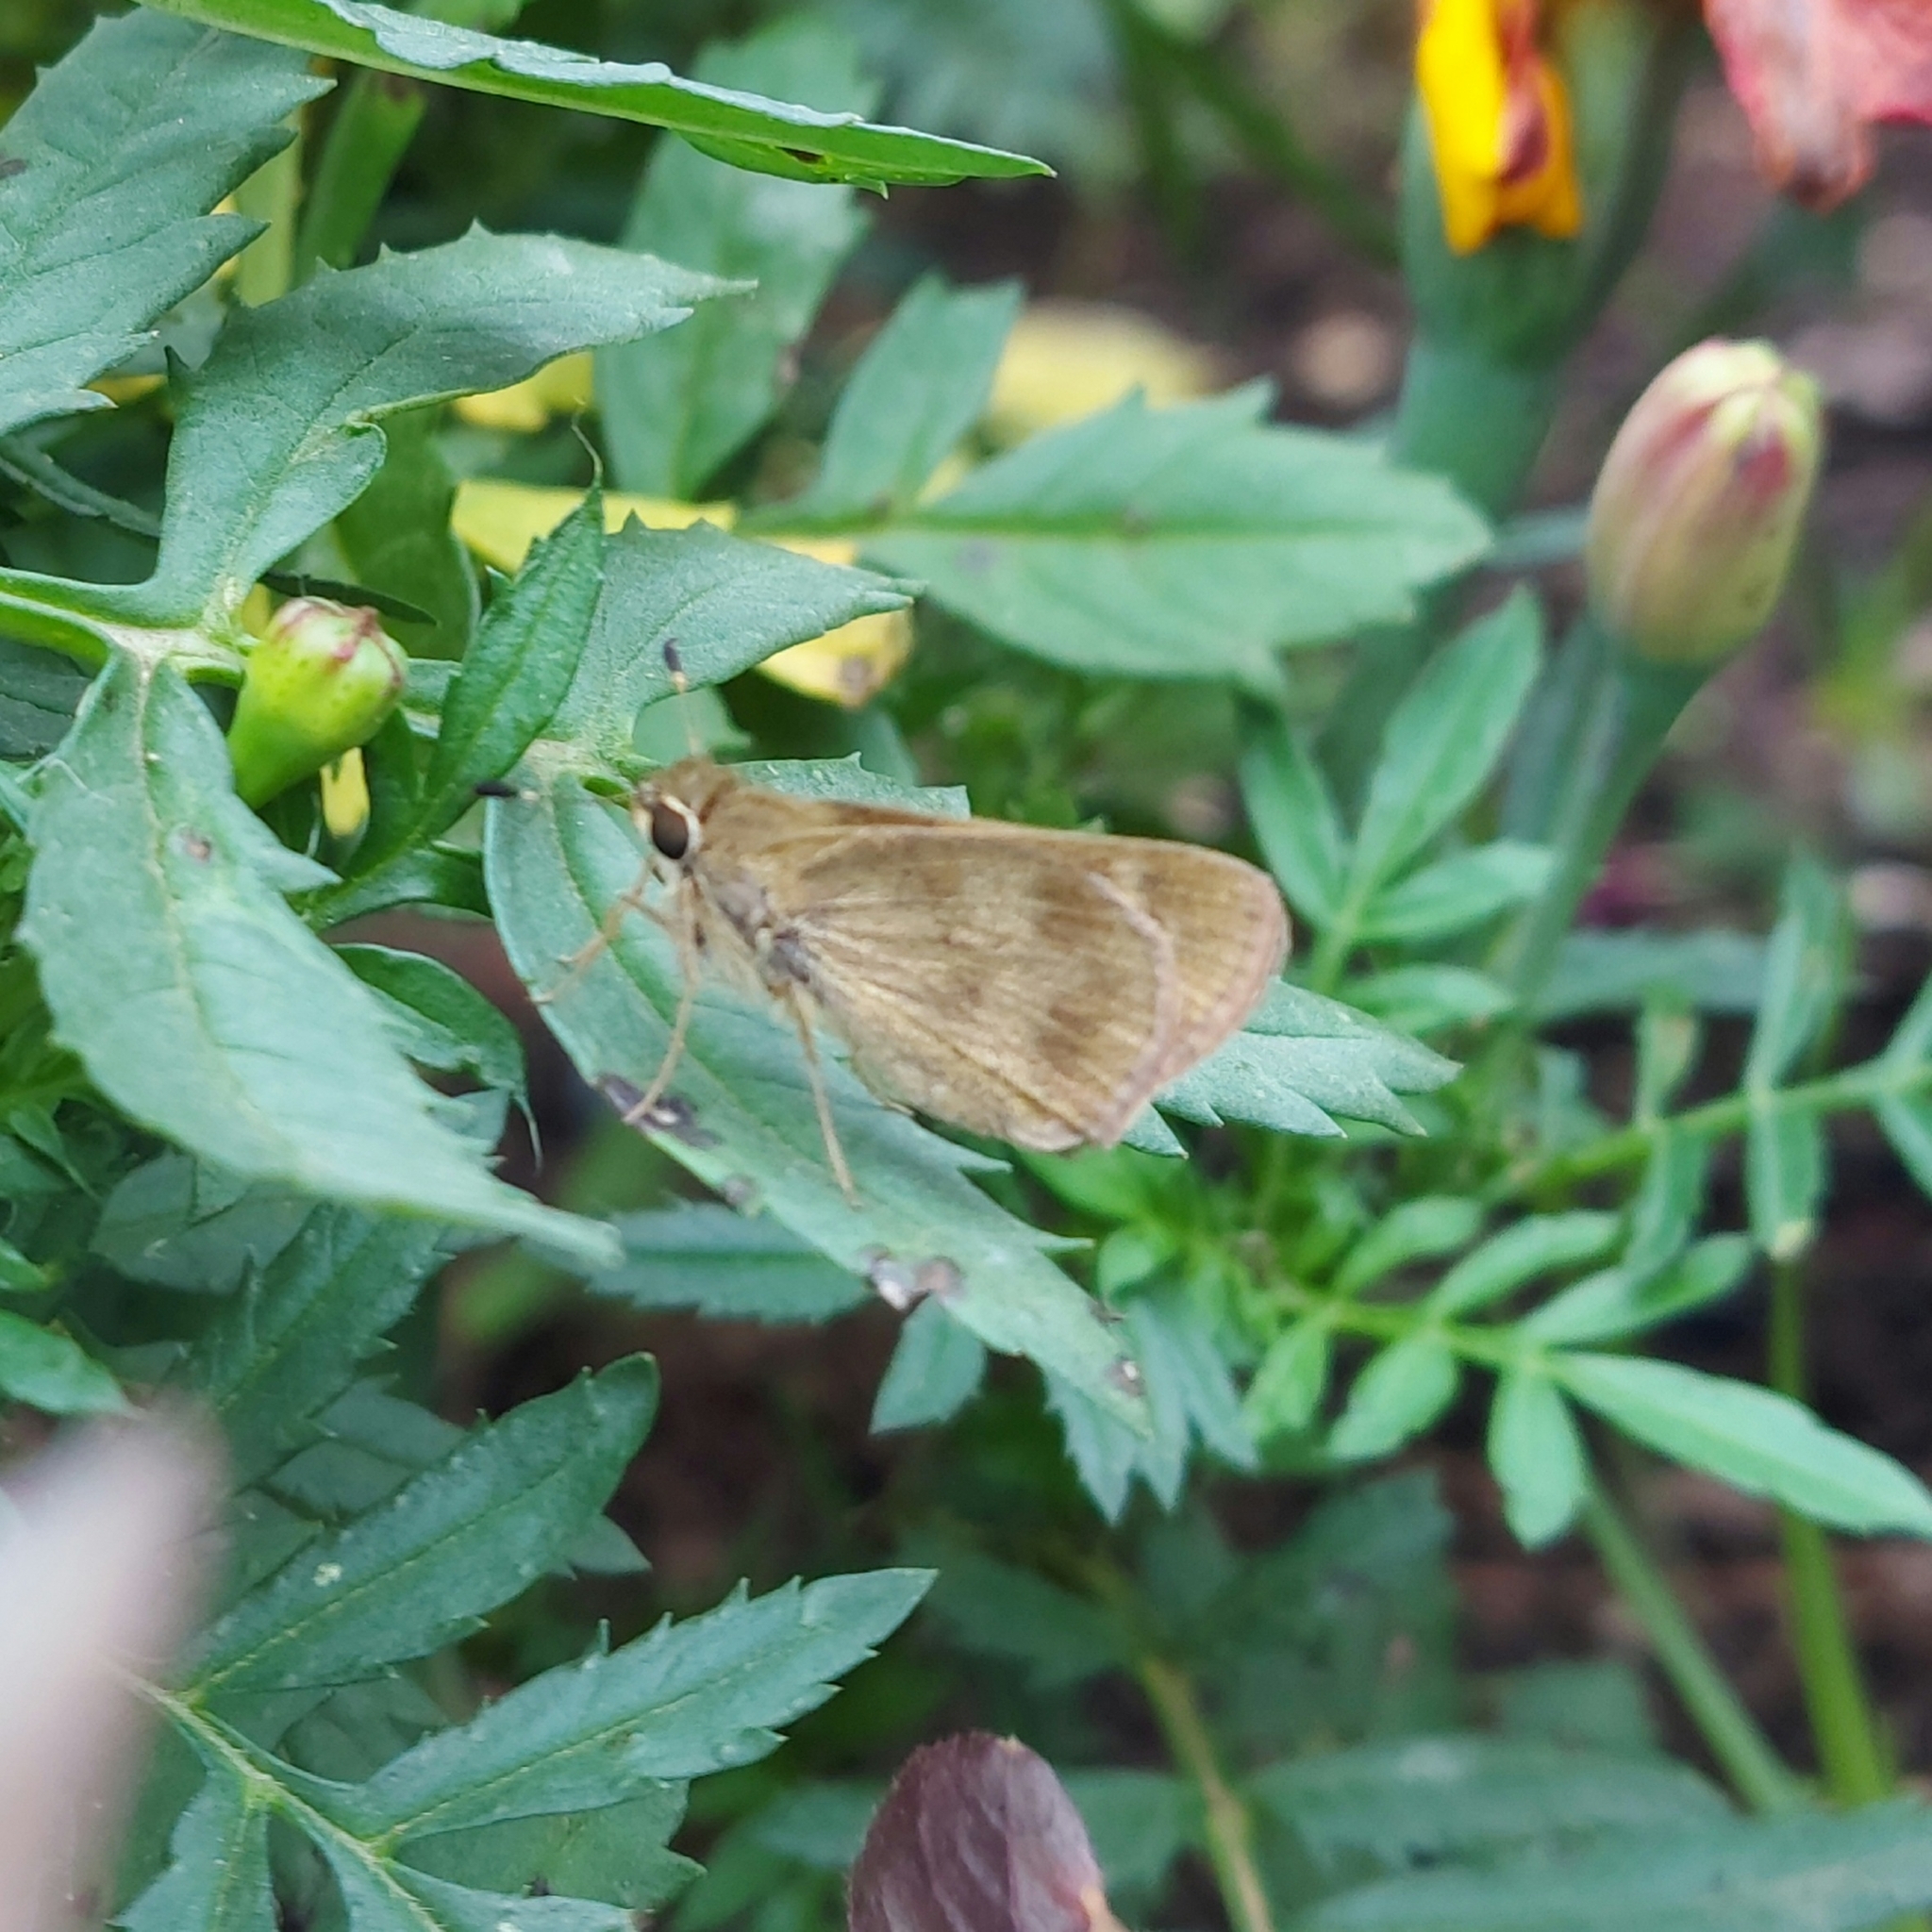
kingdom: Animalia
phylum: Arthropoda
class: Insecta
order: Lepidoptera
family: Hesperiidae
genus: Polites
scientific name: Polites vibex
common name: Whirlabout
